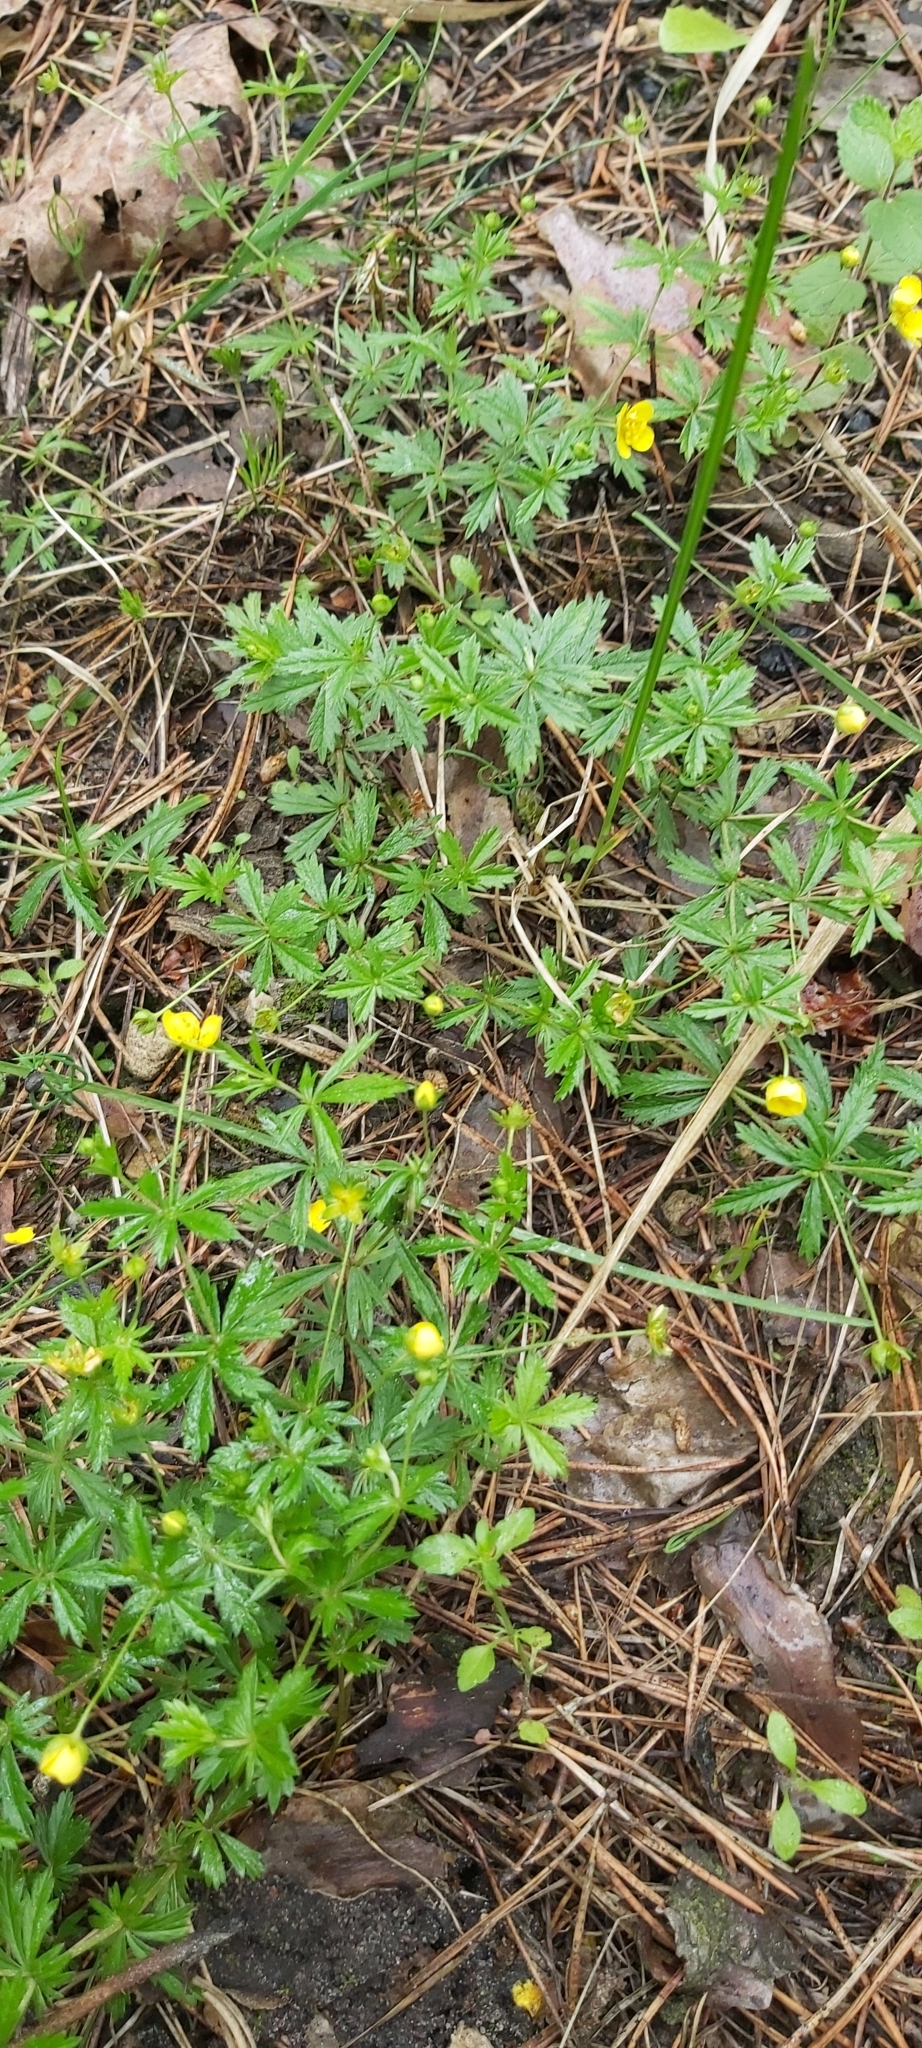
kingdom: Plantae
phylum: Tracheophyta
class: Magnoliopsida
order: Rosales
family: Rosaceae
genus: Potentilla
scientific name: Potentilla erecta
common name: Tormentil
